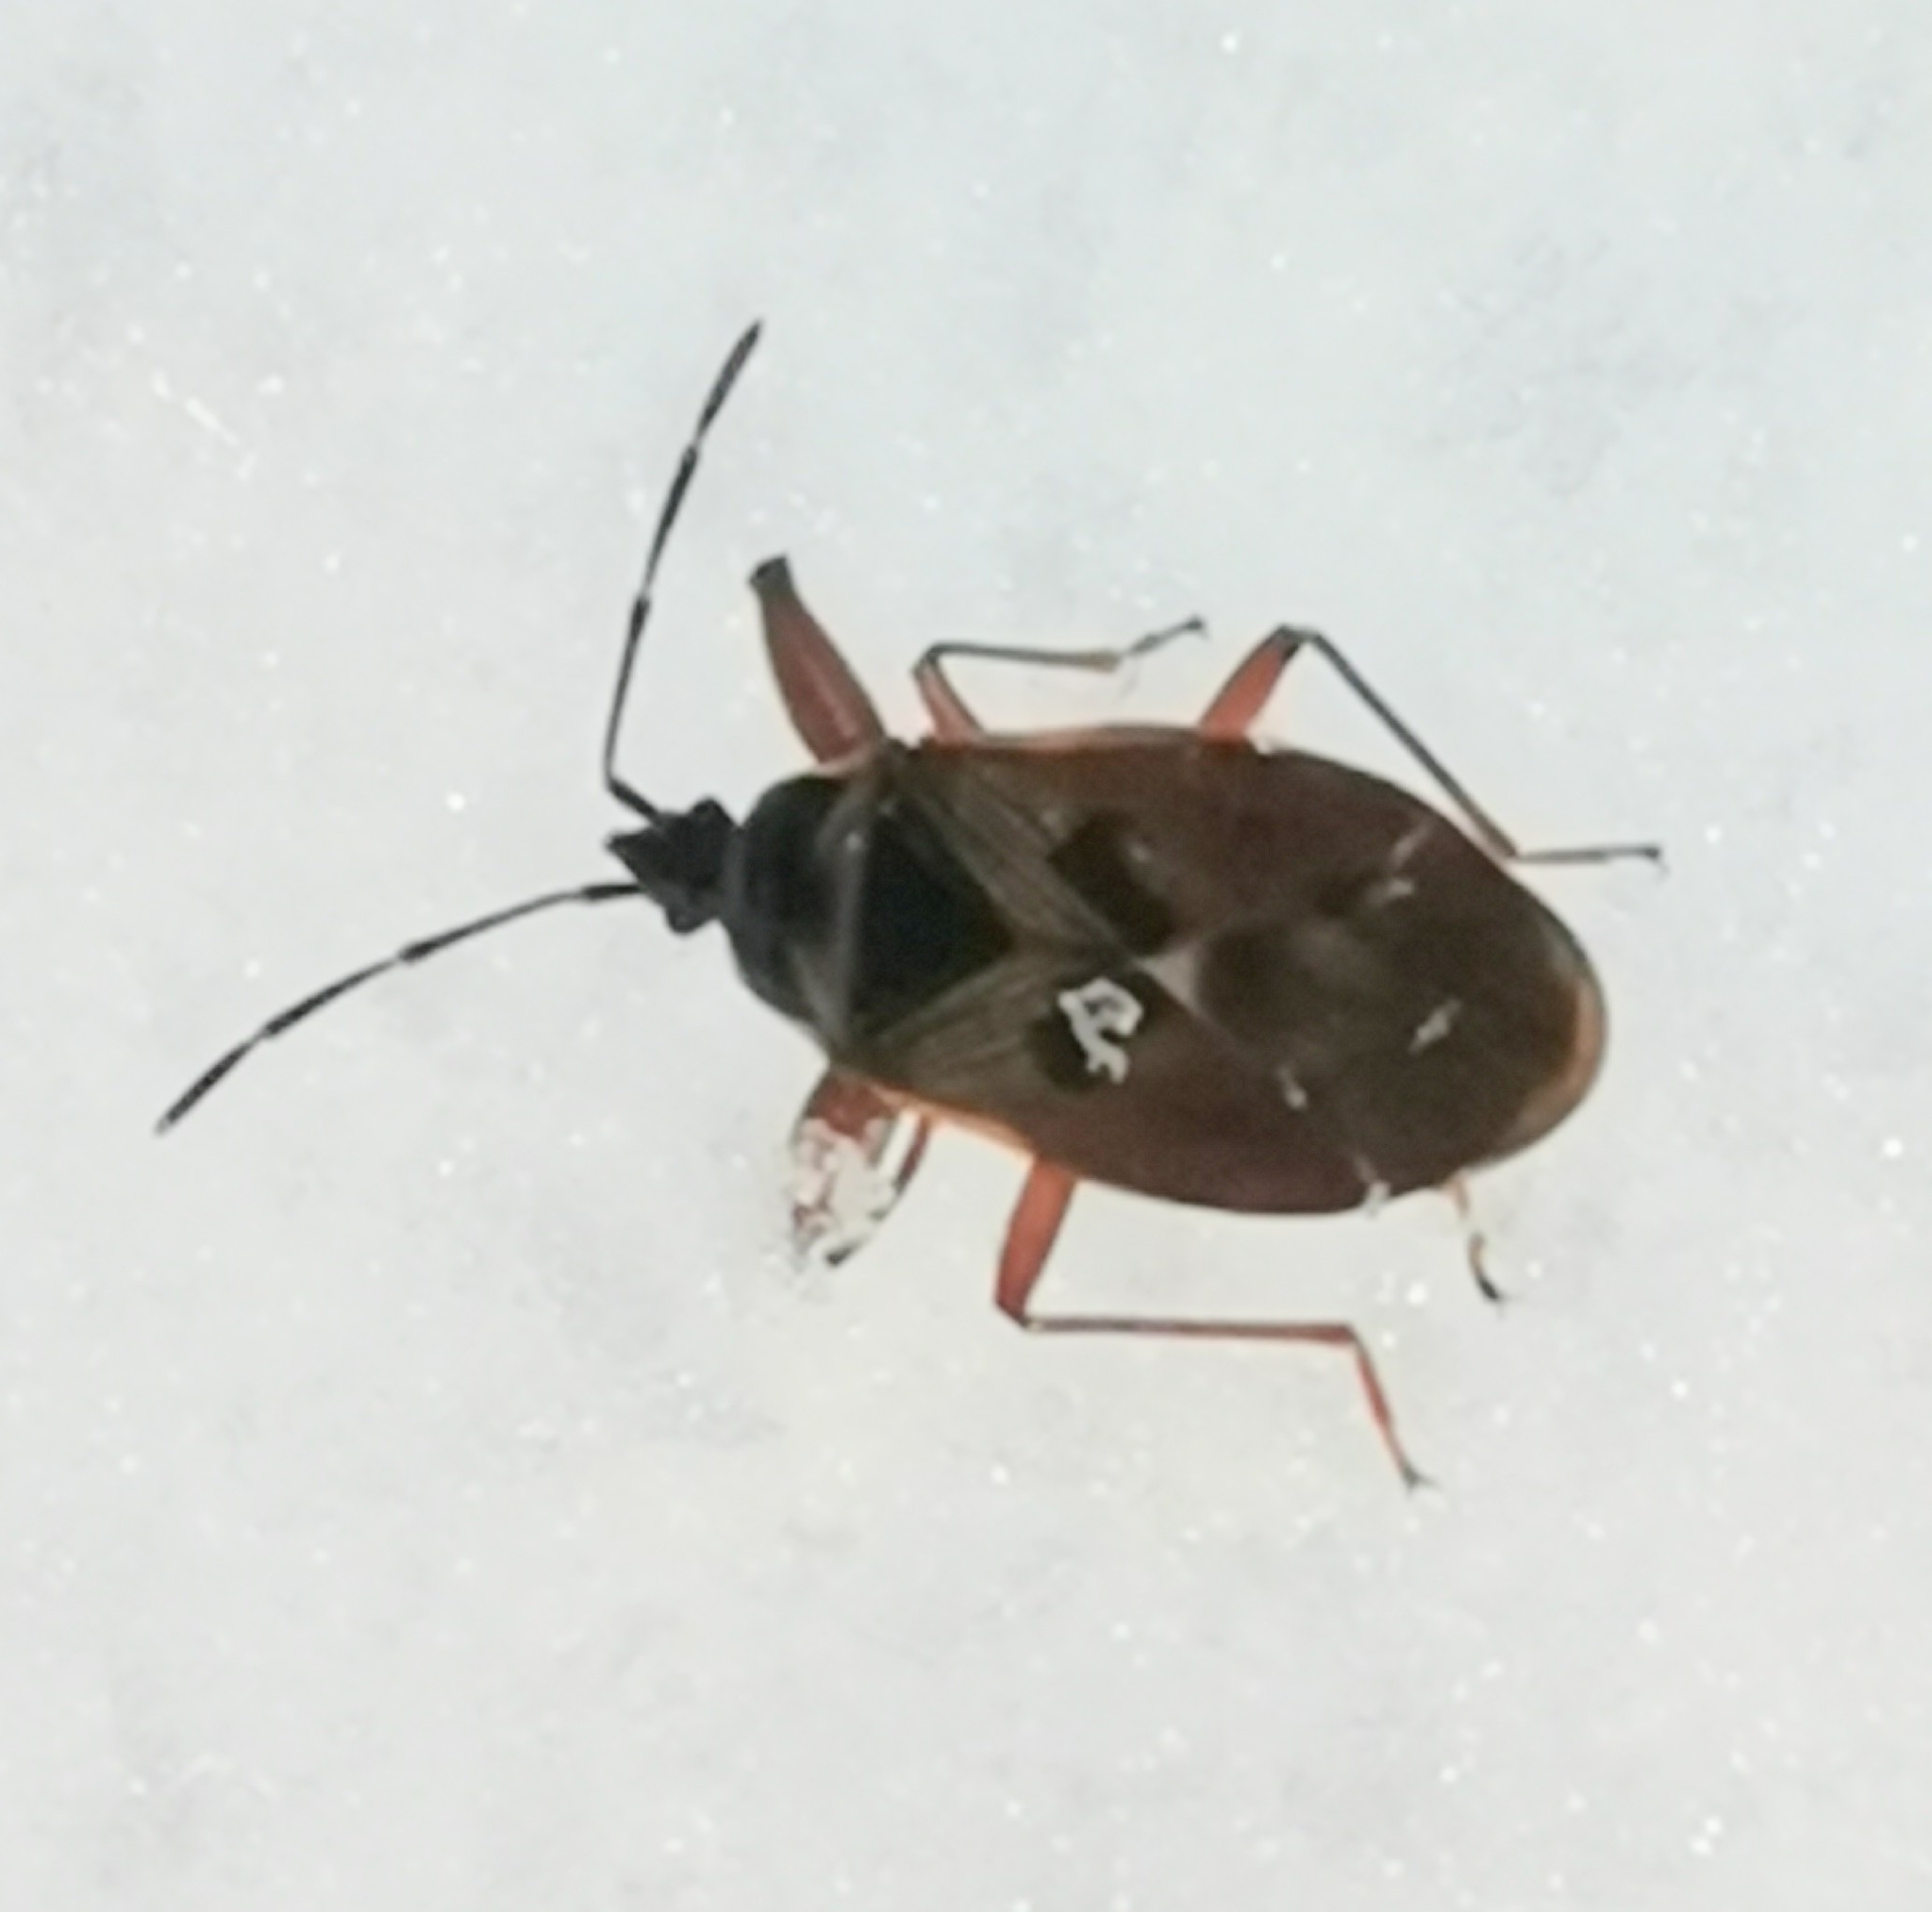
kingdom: Animalia
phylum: Arthropoda
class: Insecta
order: Hemiptera
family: Rhyparochromidae
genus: Gastrodes
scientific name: Gastrodes abietum
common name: Spruce cone bug
